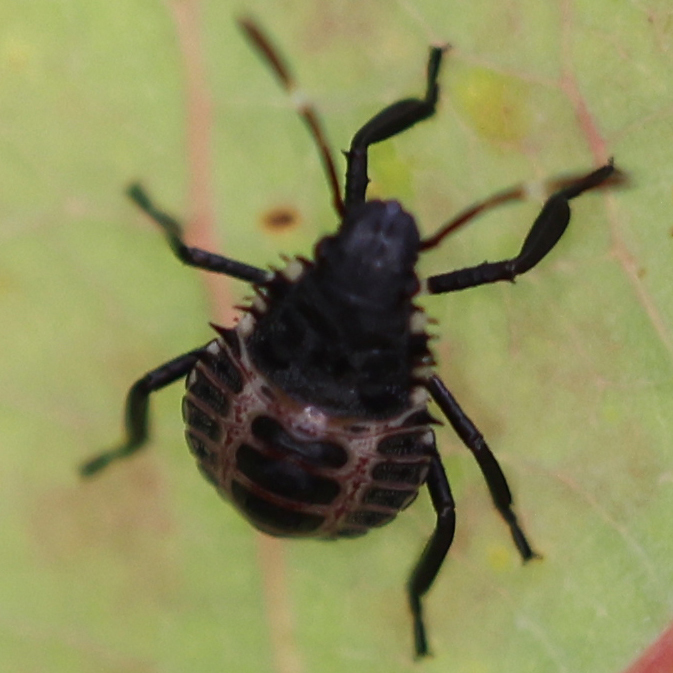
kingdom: Animalia
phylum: Arthropoda
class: Insecta
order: Hemiptera
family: Pentatomidae
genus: Halyomorpha
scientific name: Halyomorpha halys
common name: Brown marmorated stink bug
